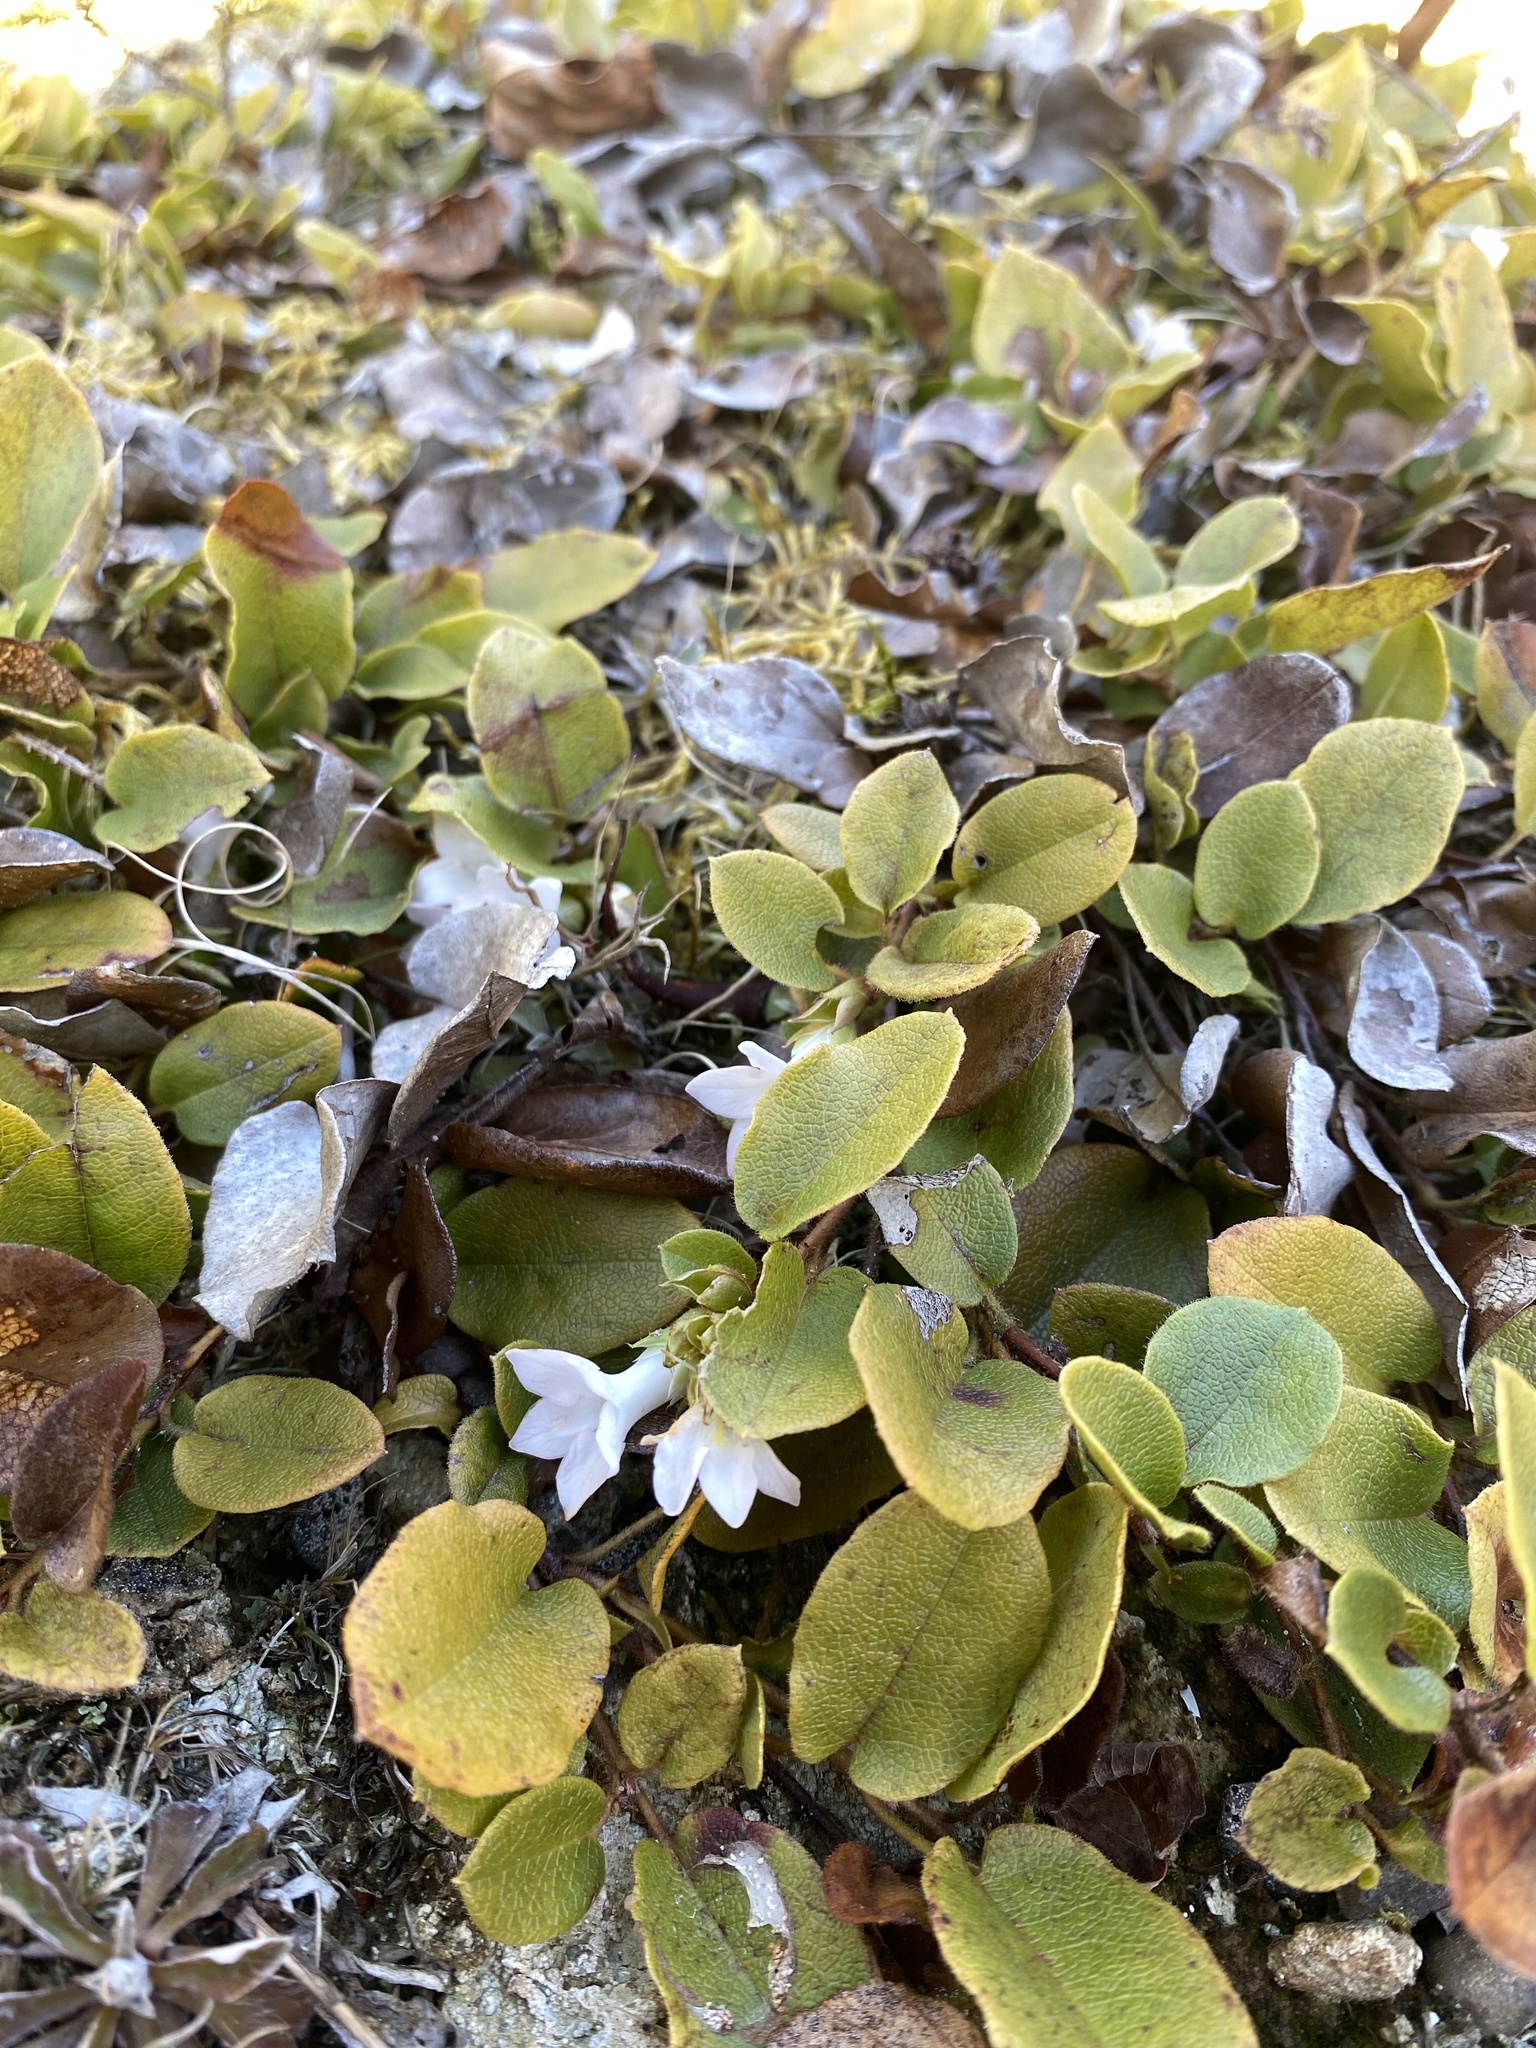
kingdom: Plantae
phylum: Tracheophyta
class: Magnoliopsida
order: Ericales
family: Ericaceae
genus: Epigaea
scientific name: Epigaea repens
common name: Gravelroot
